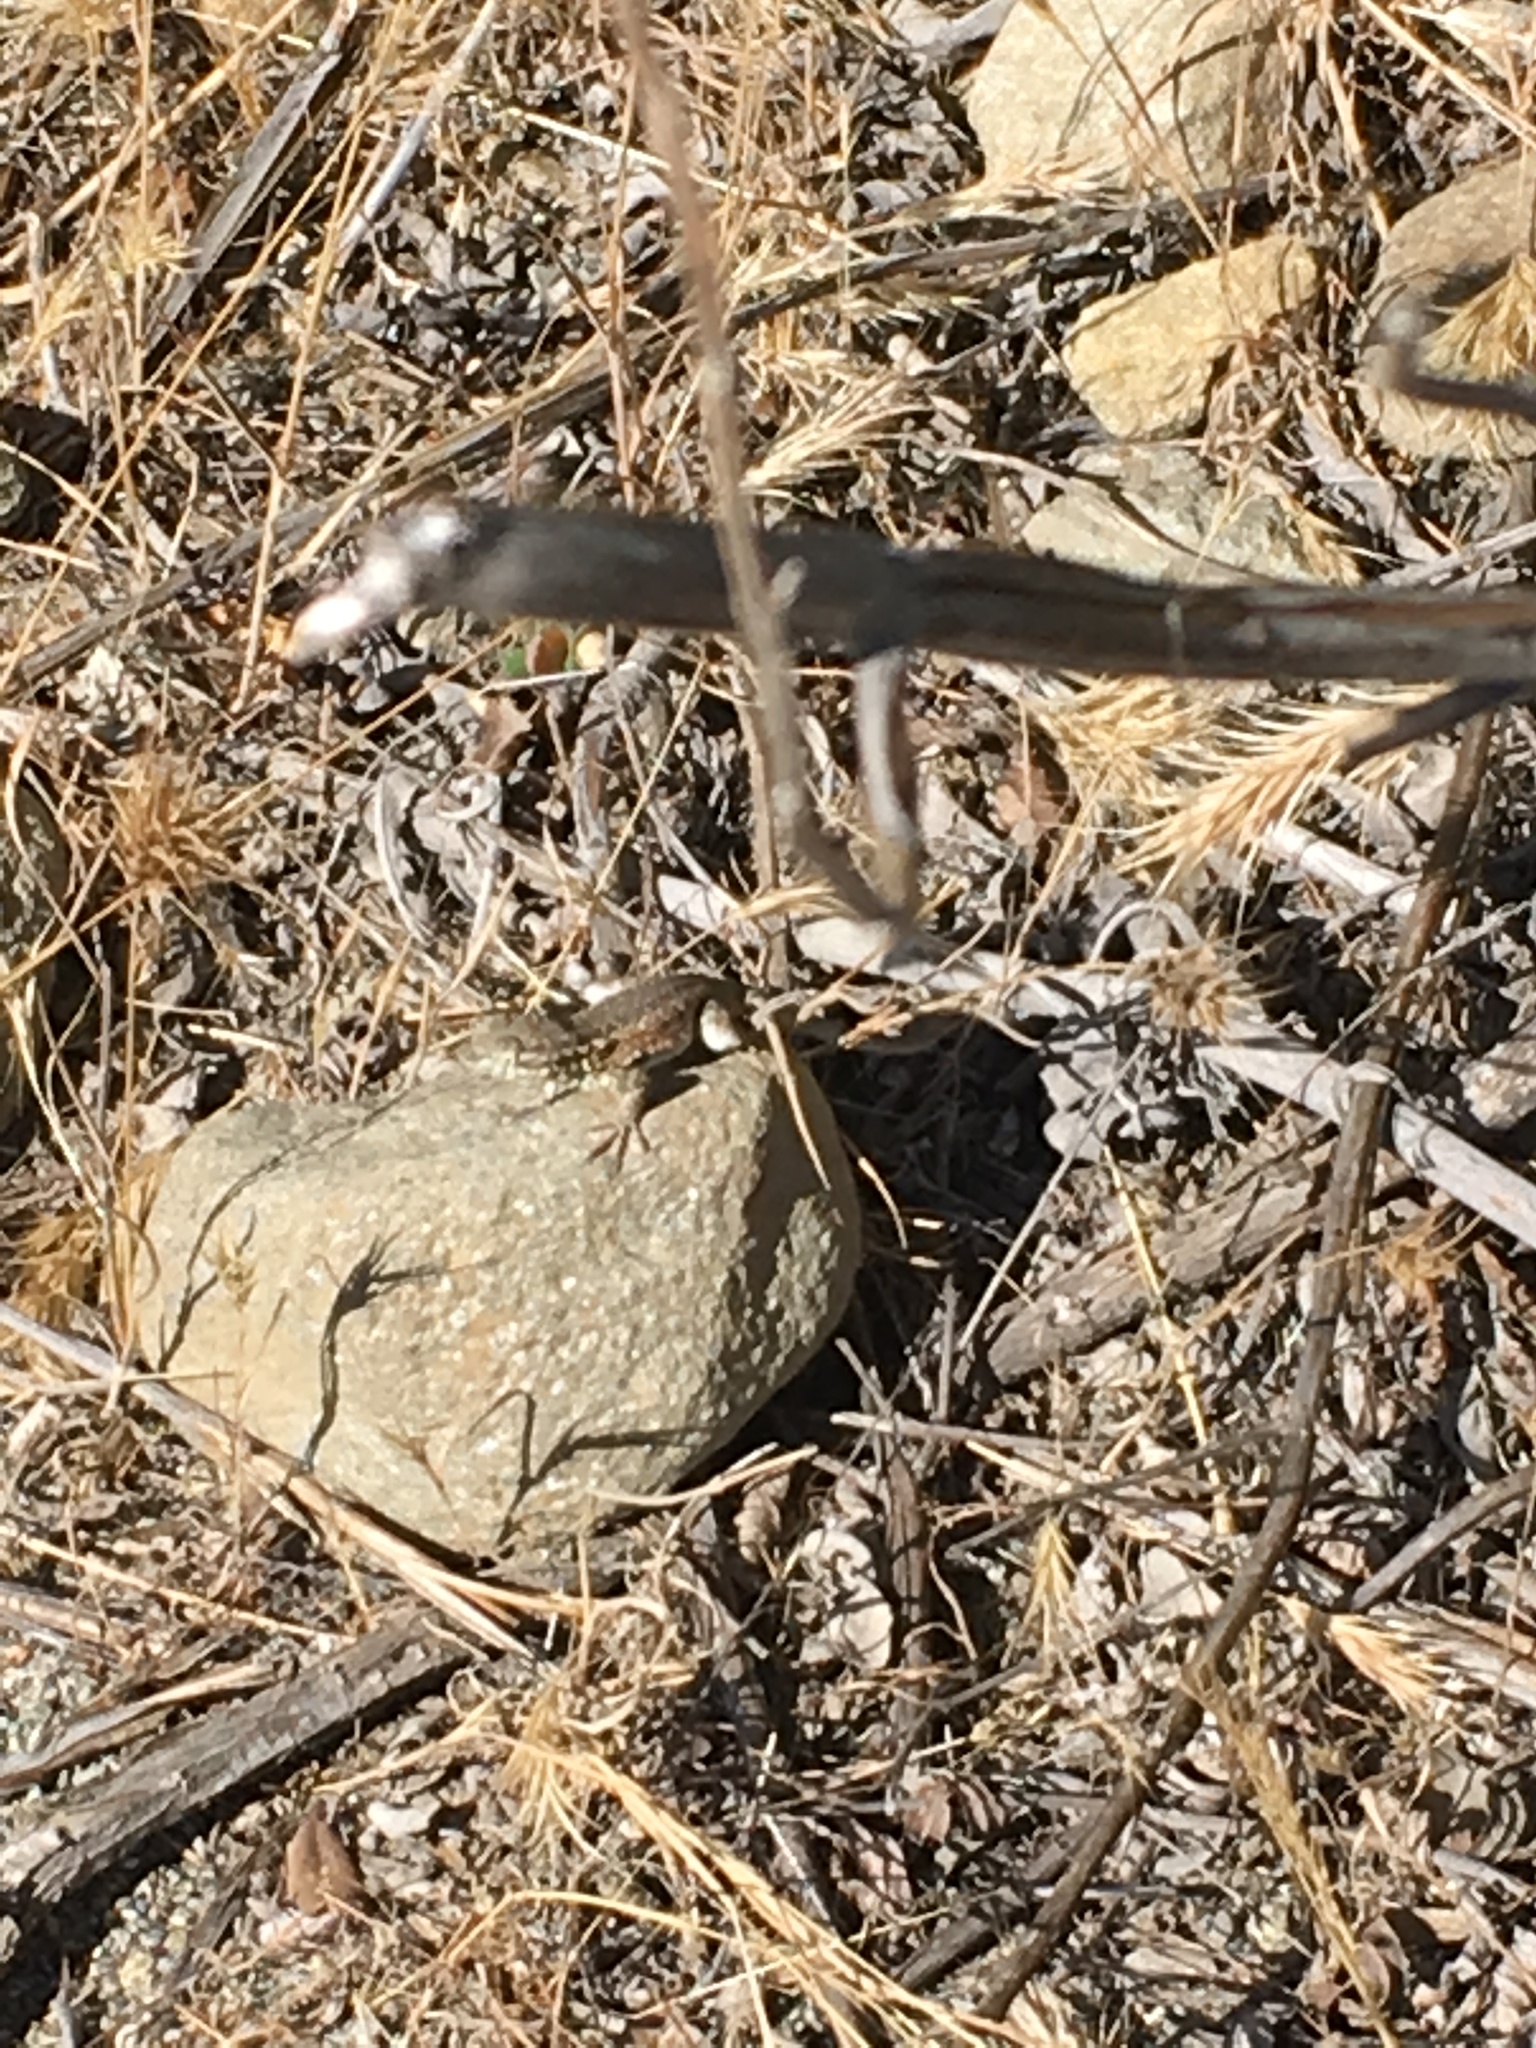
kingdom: Animalia
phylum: Chordata
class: Squamata
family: Phrynosomatidae
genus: Uta
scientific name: Uta stansburiana
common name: Side-blotched lizard
